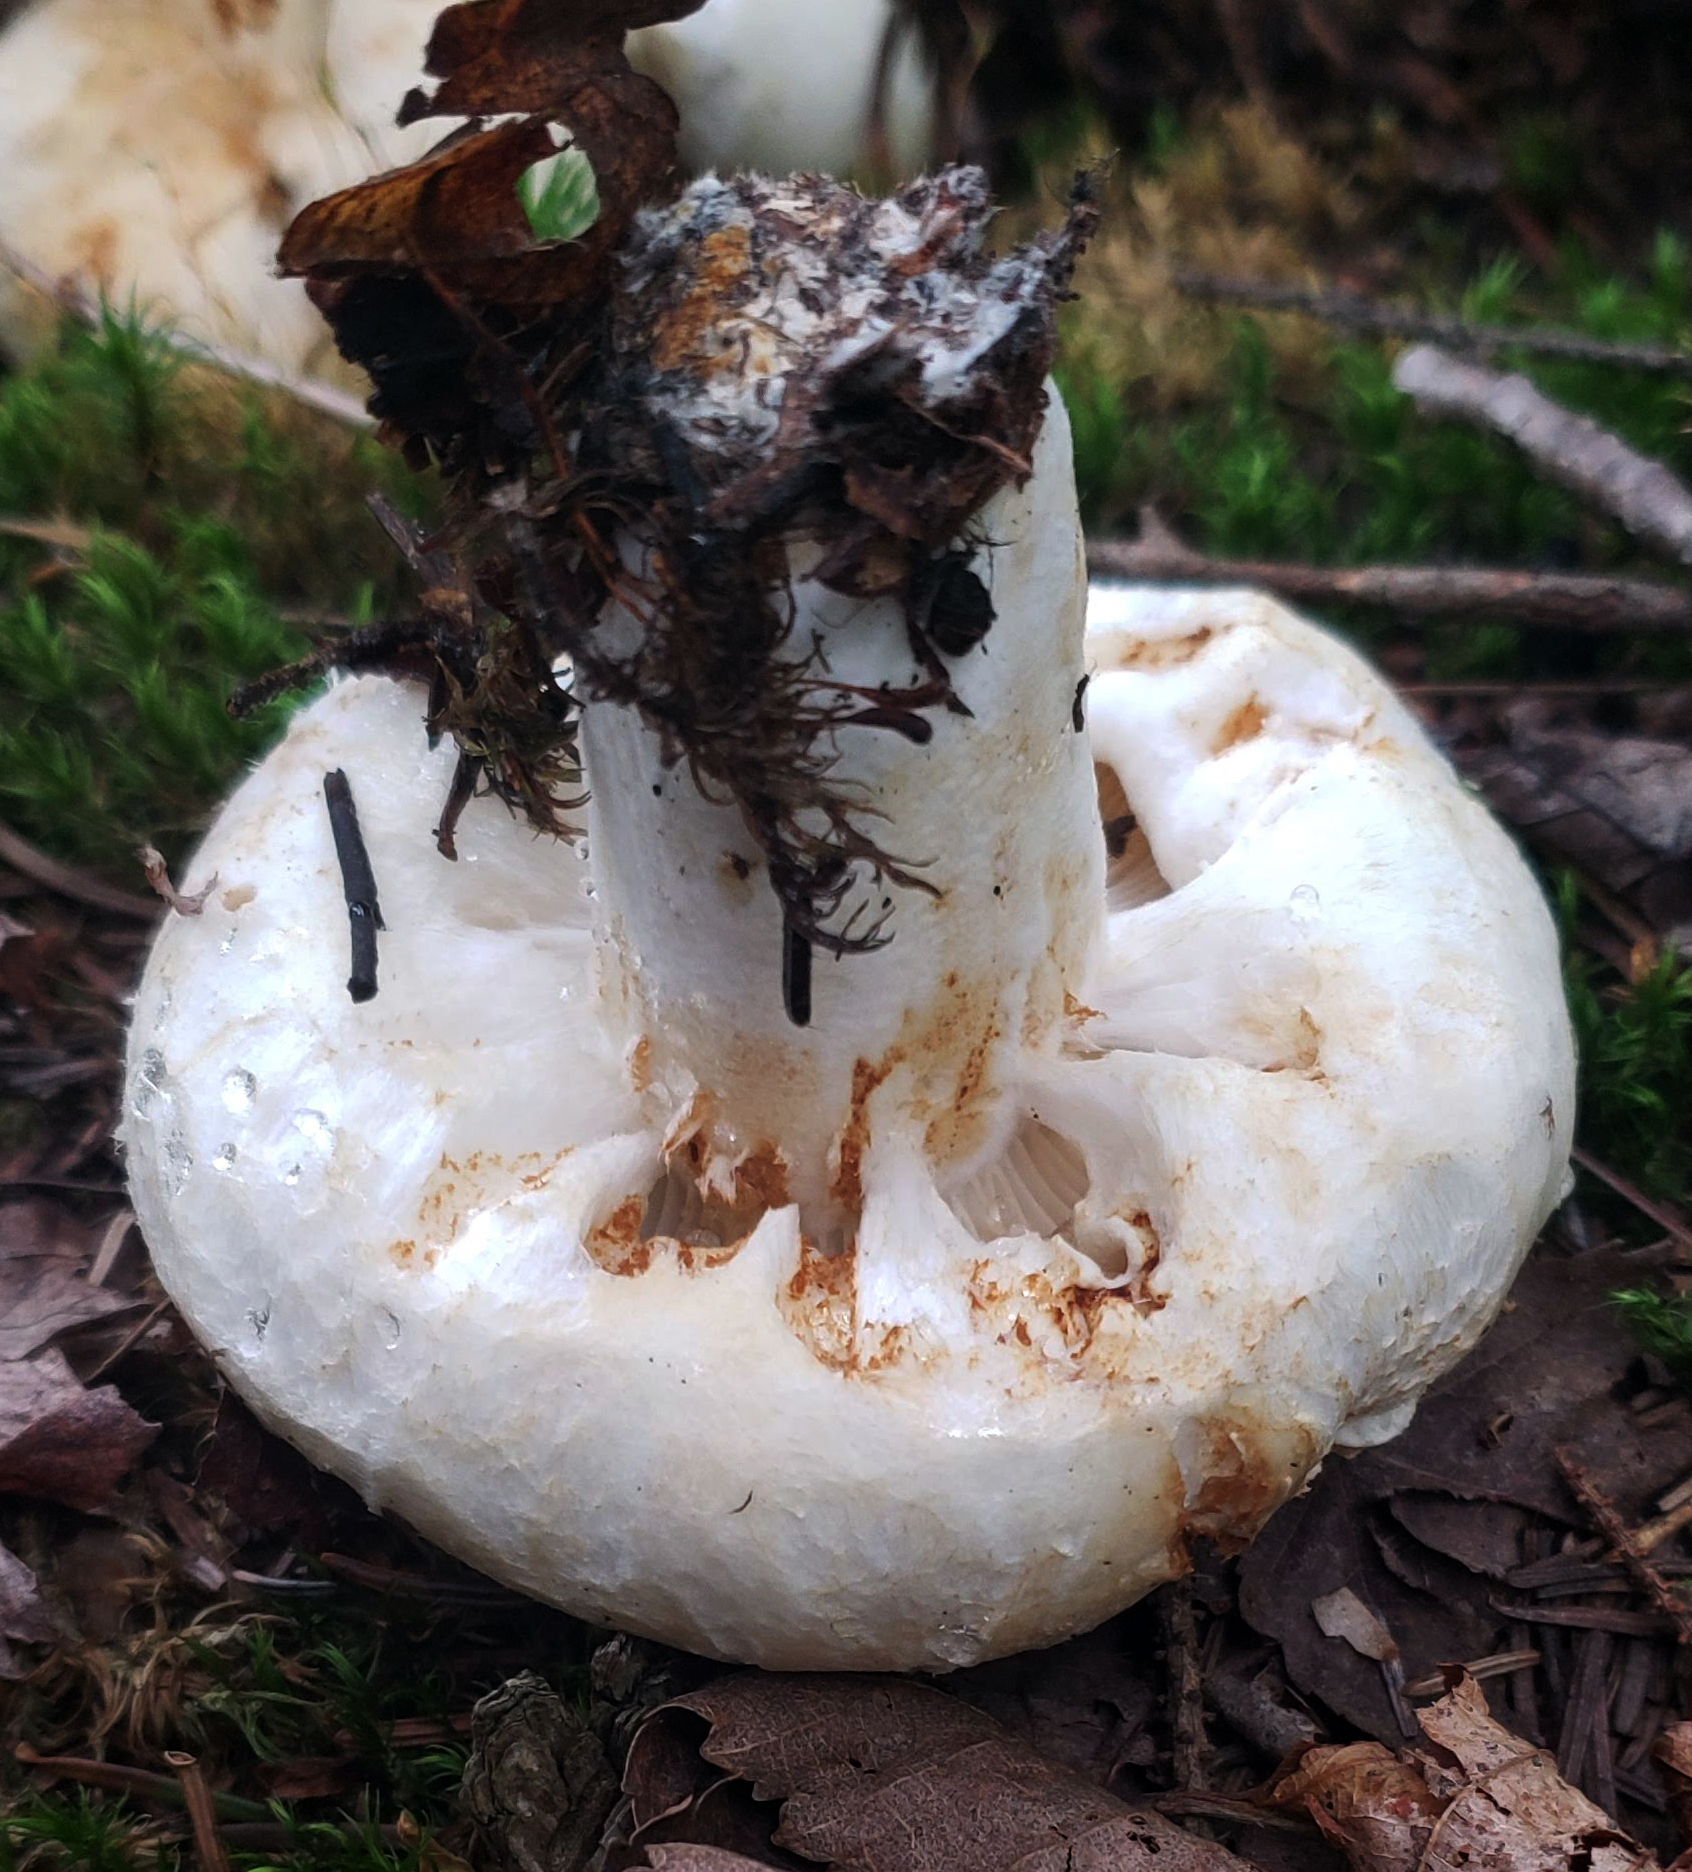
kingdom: Fungi
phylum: Basidiomycota
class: Agaricomycetes
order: Russulales
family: Russulaceae
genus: Lactifluus
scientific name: Lactifluus
